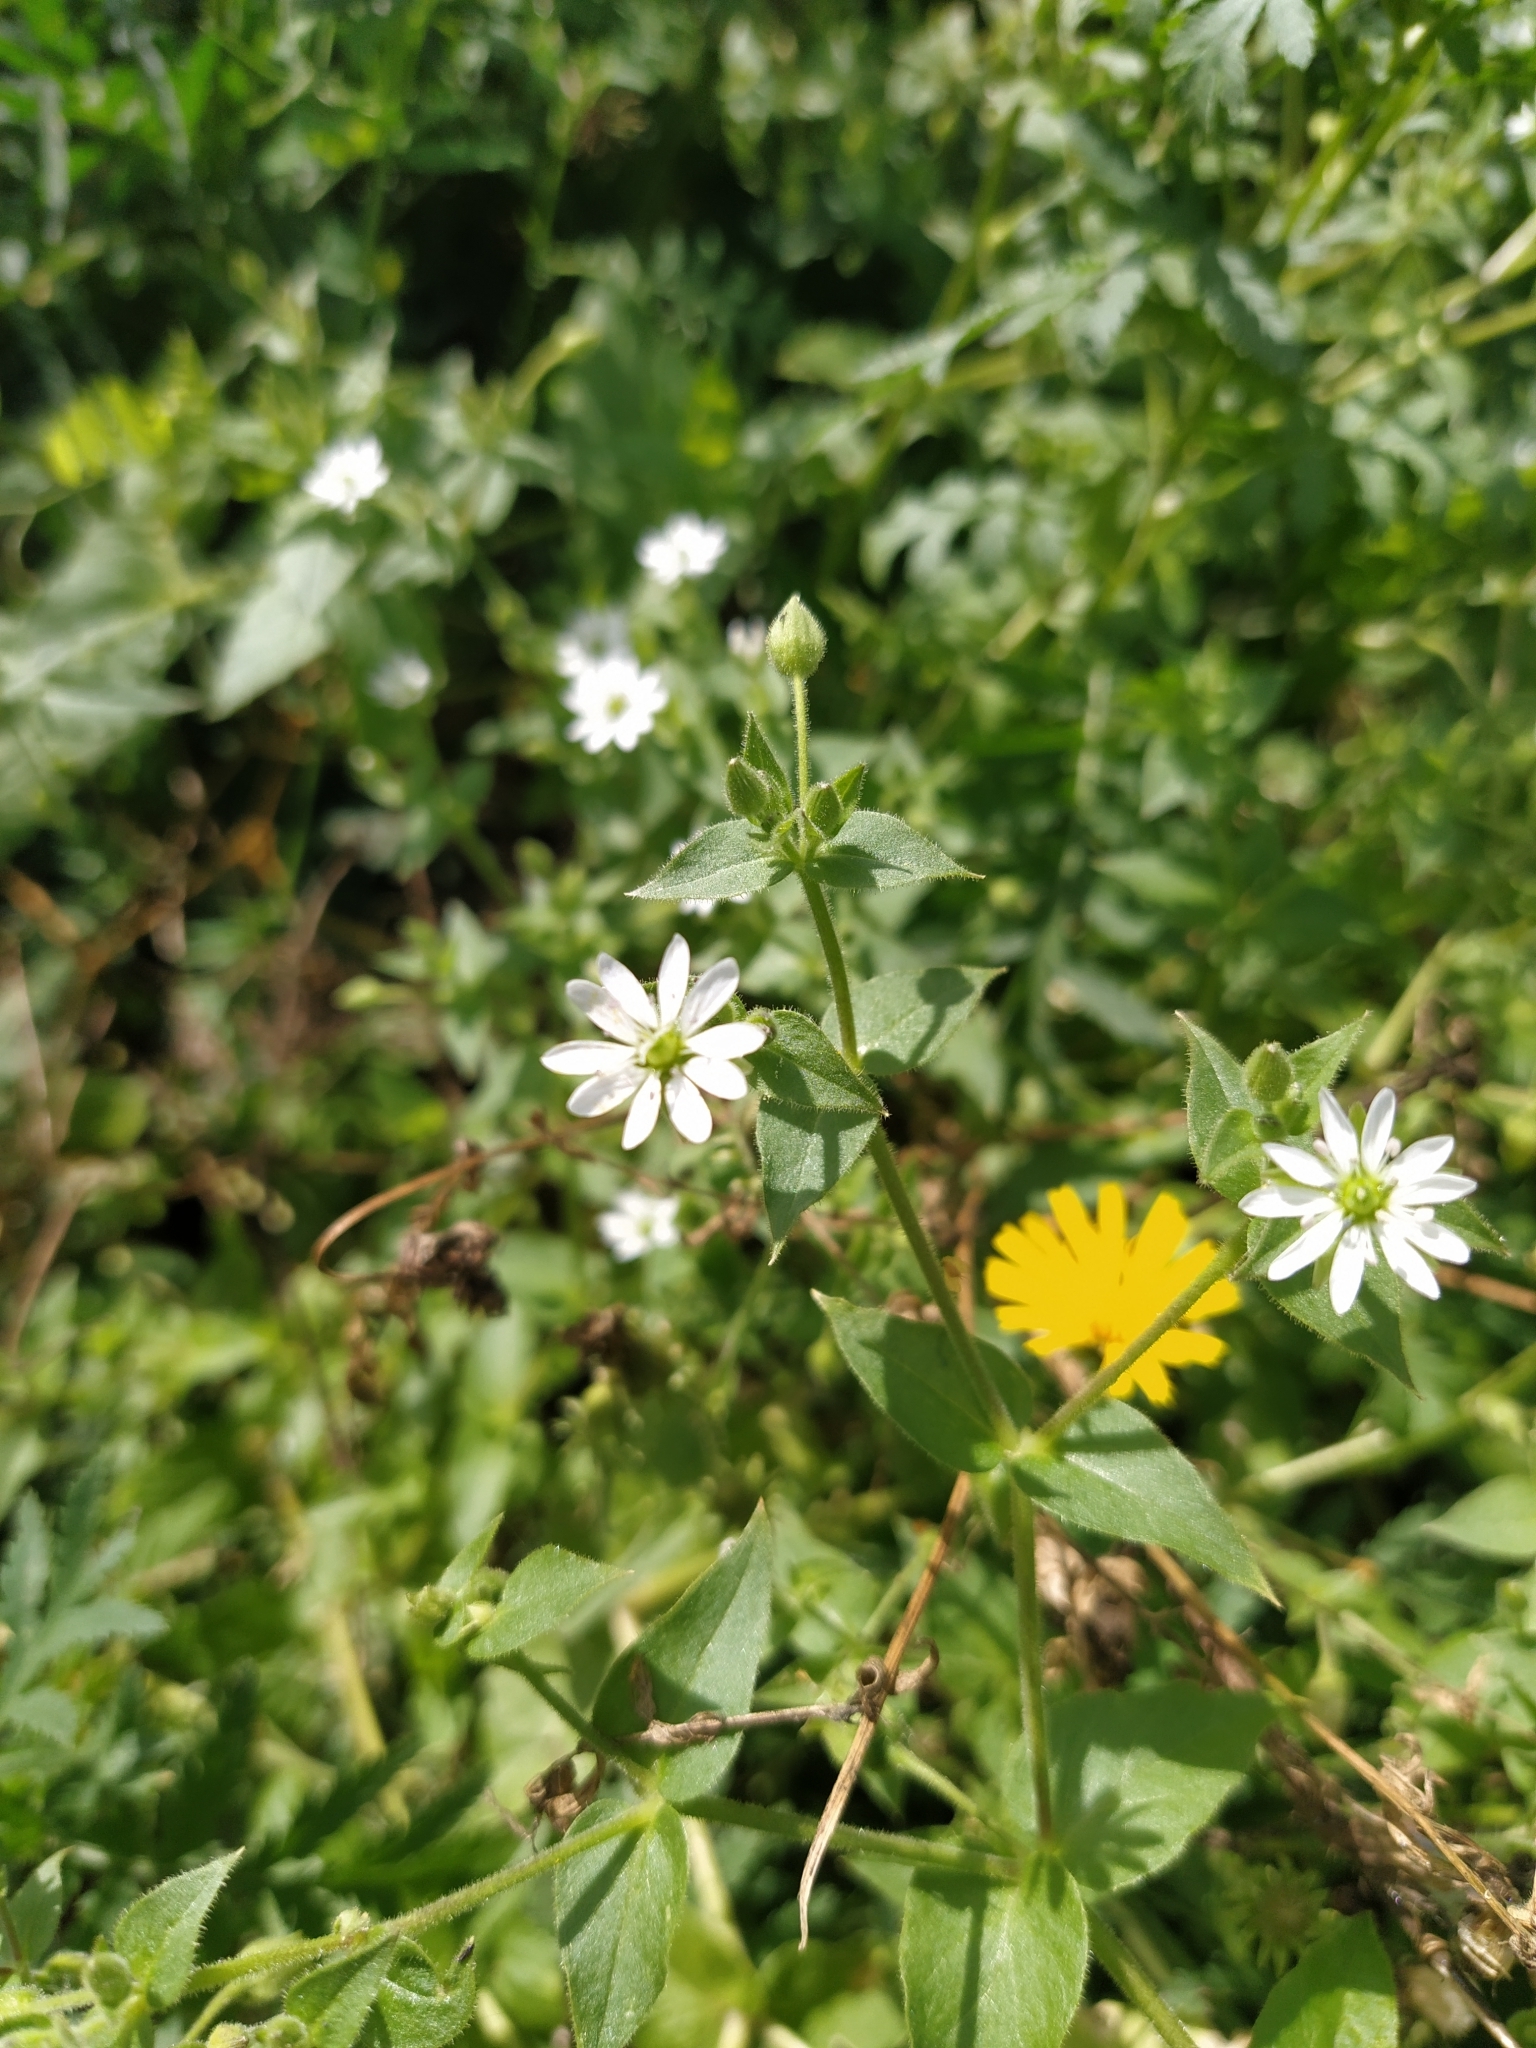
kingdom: Plantae
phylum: Tracheophyta
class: Magnoliopsida
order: Caryophyllales
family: Caryophyllaceae
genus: Stellaria
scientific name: Stellaria aquatica
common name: Water chickweed
